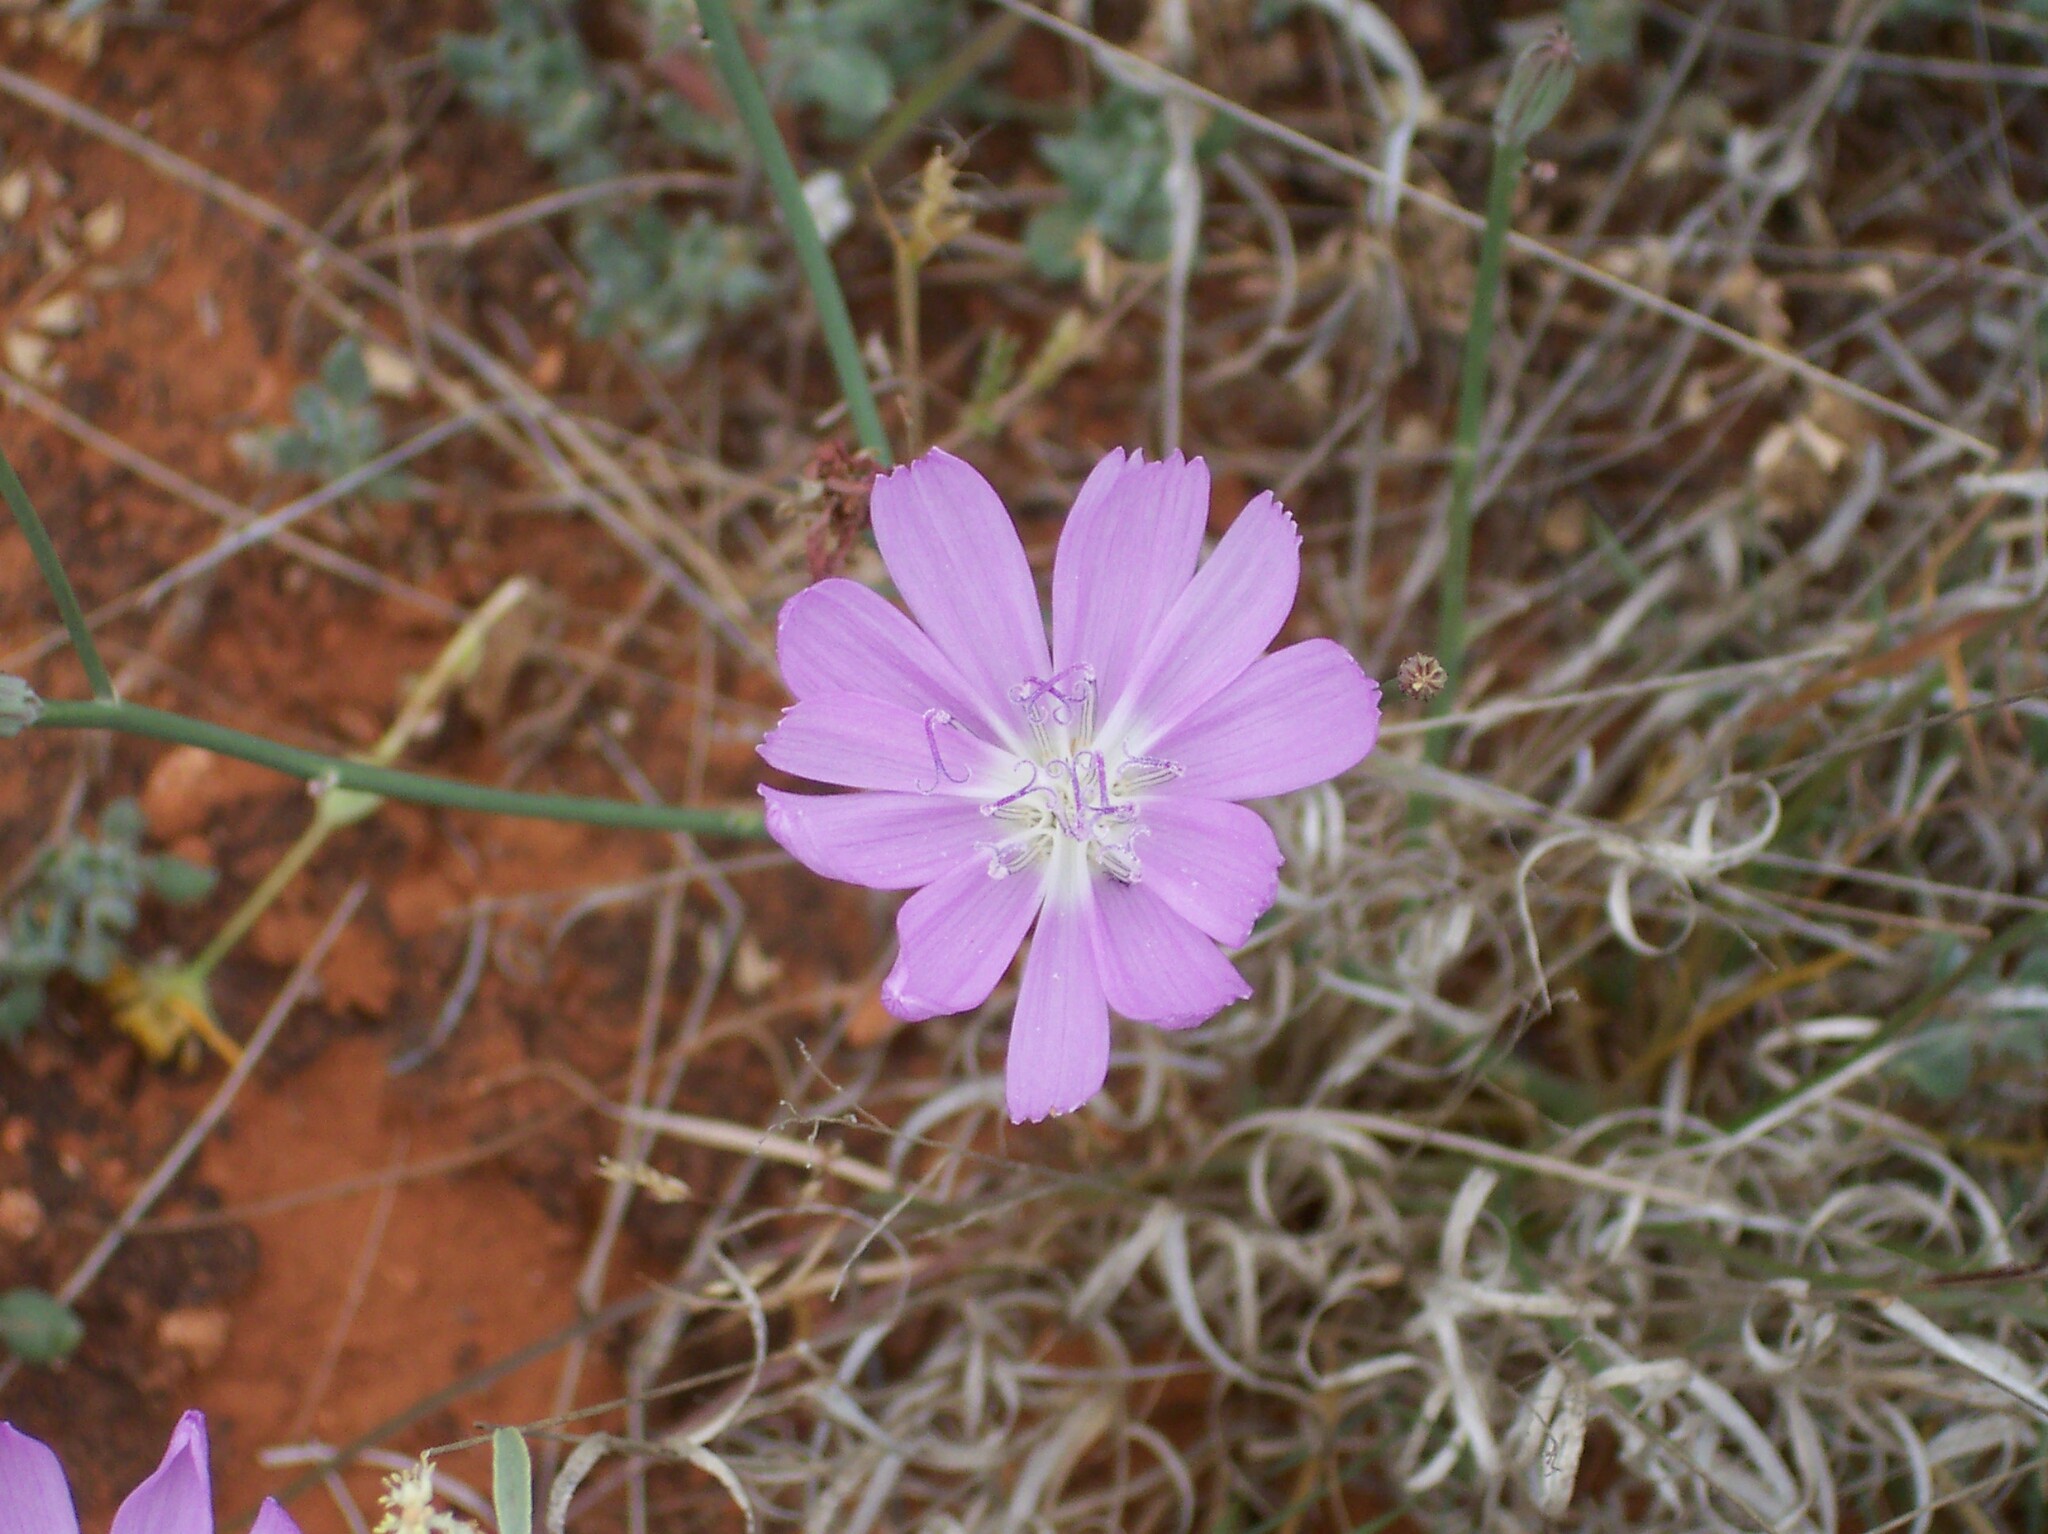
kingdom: Plantae
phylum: Tracheophyta
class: Magnoliopsida
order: Asterales
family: Asteraceae
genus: Lygodesmia
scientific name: Lygodesmia texana
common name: Texas skeleton-plant
